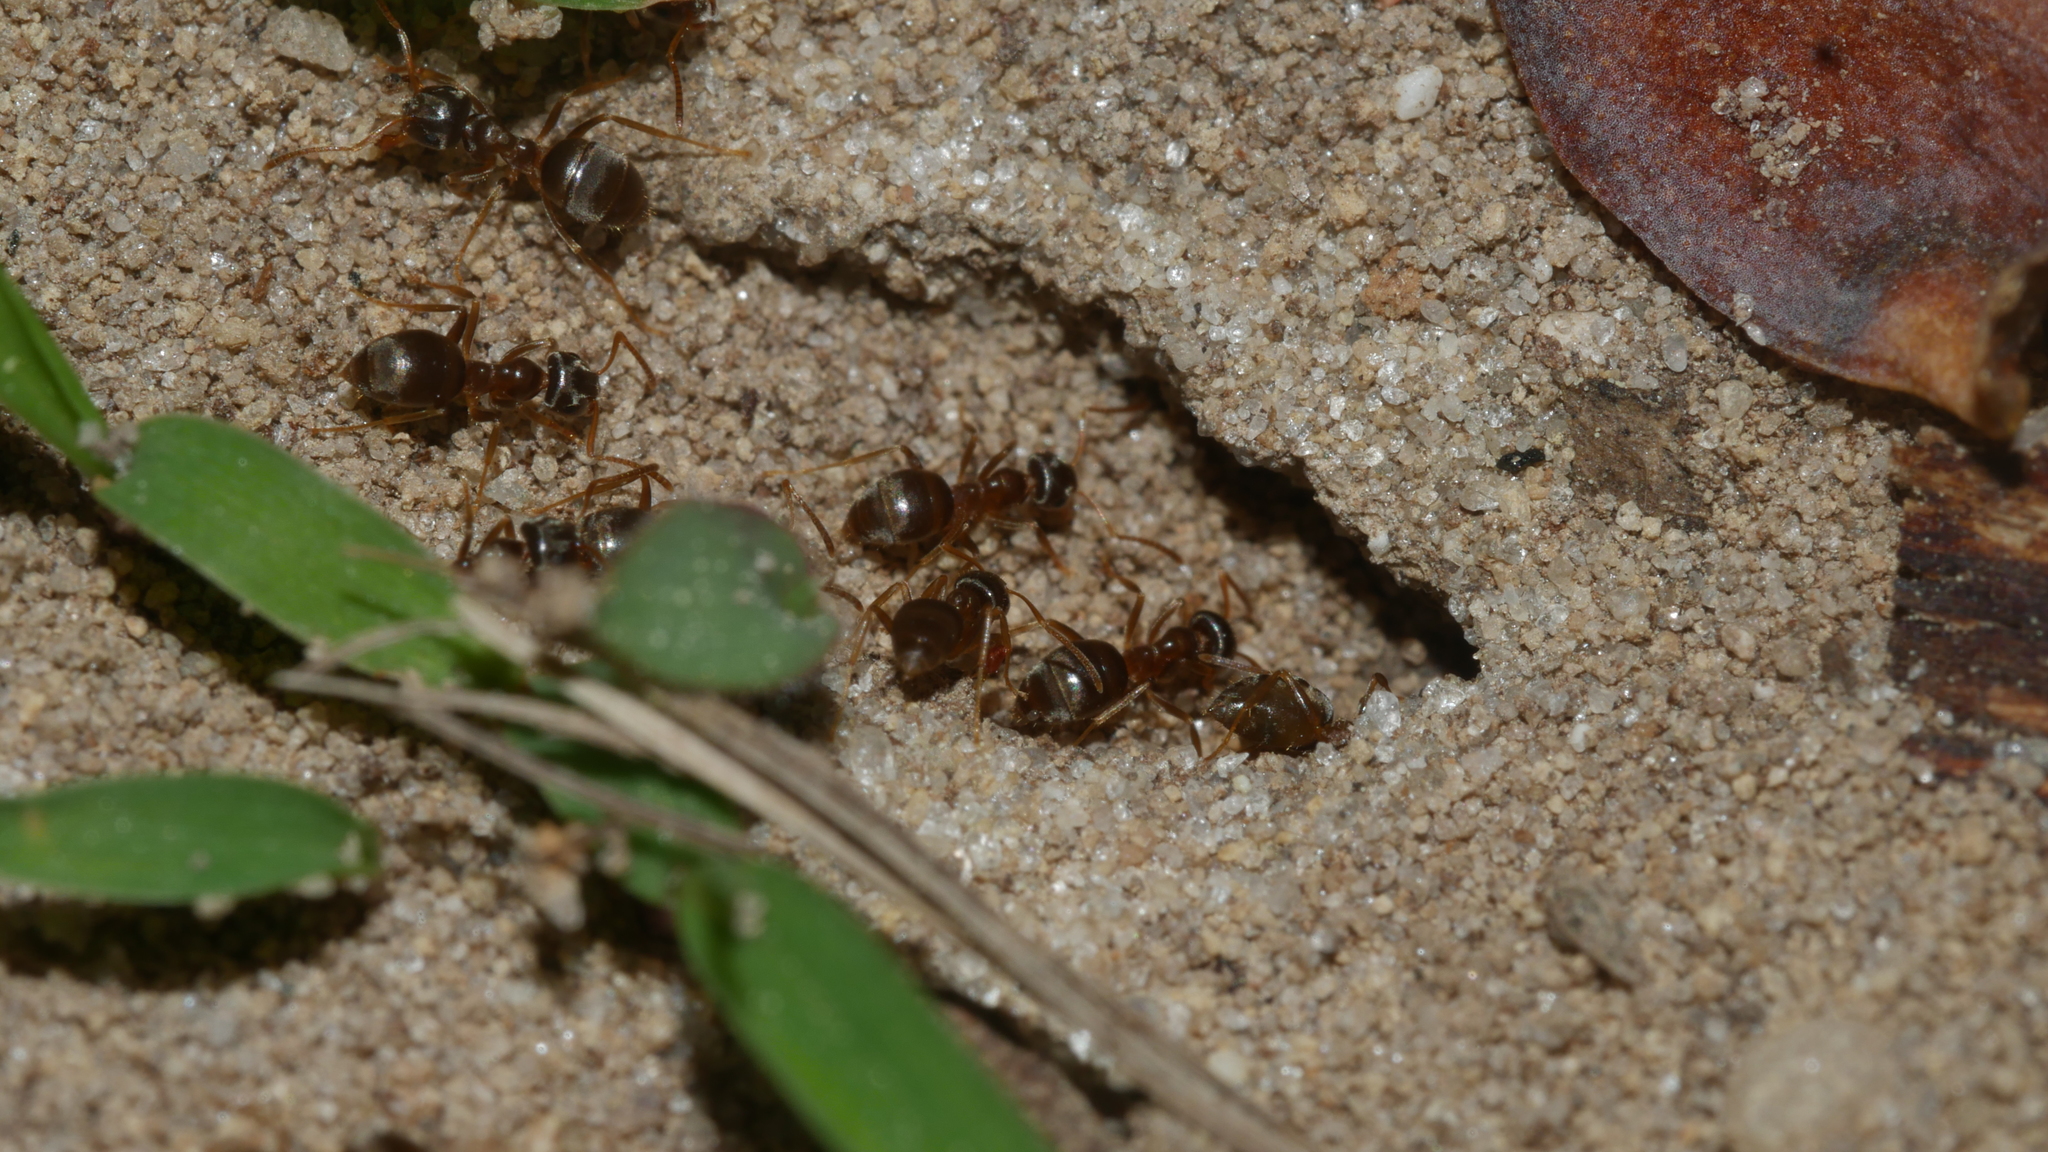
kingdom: Animalia
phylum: Arthropoda
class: Insecta
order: Hymenoptera
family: Formicidae
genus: Lasius
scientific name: Lasius neoniger
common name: Turfgrass ant
